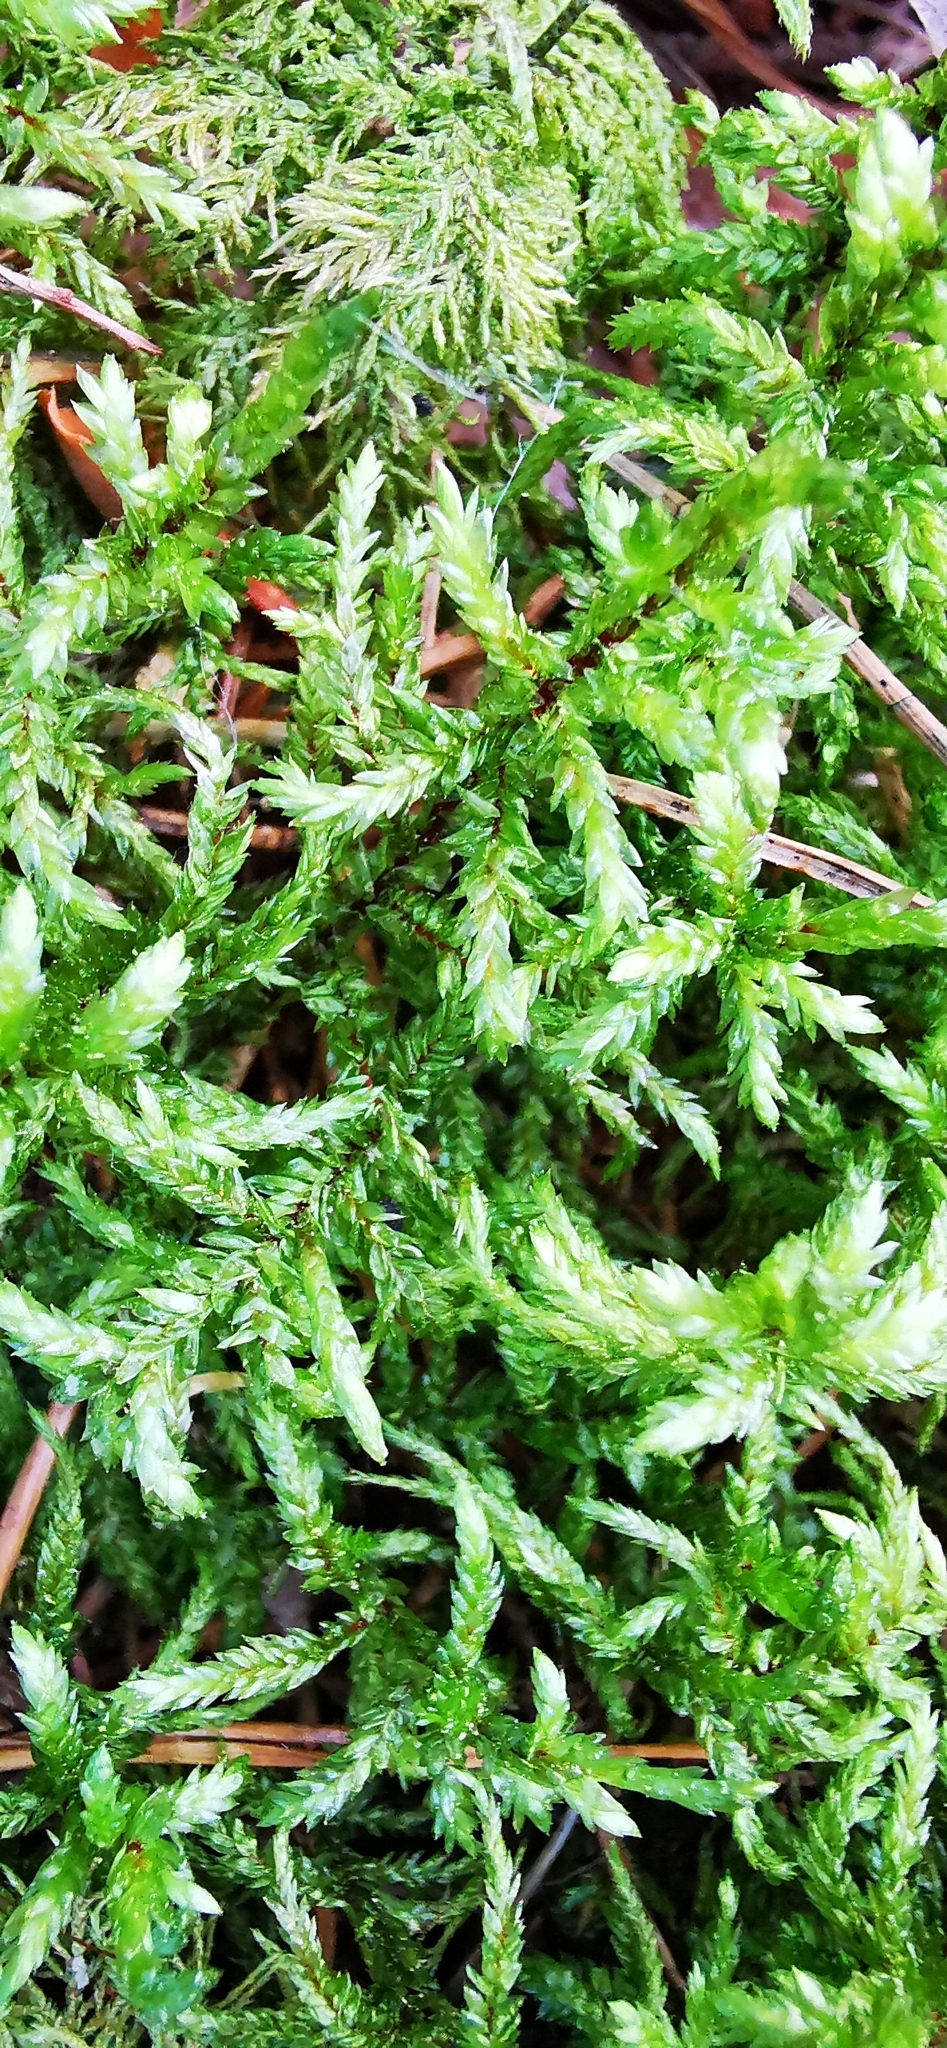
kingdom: Plantae
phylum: Bryophyta
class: Bryopsida
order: Hypnales
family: Hylocomiaceae
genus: Pleurozium
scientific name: Pleurozium schreberi
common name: Red-stemmed feather moss
